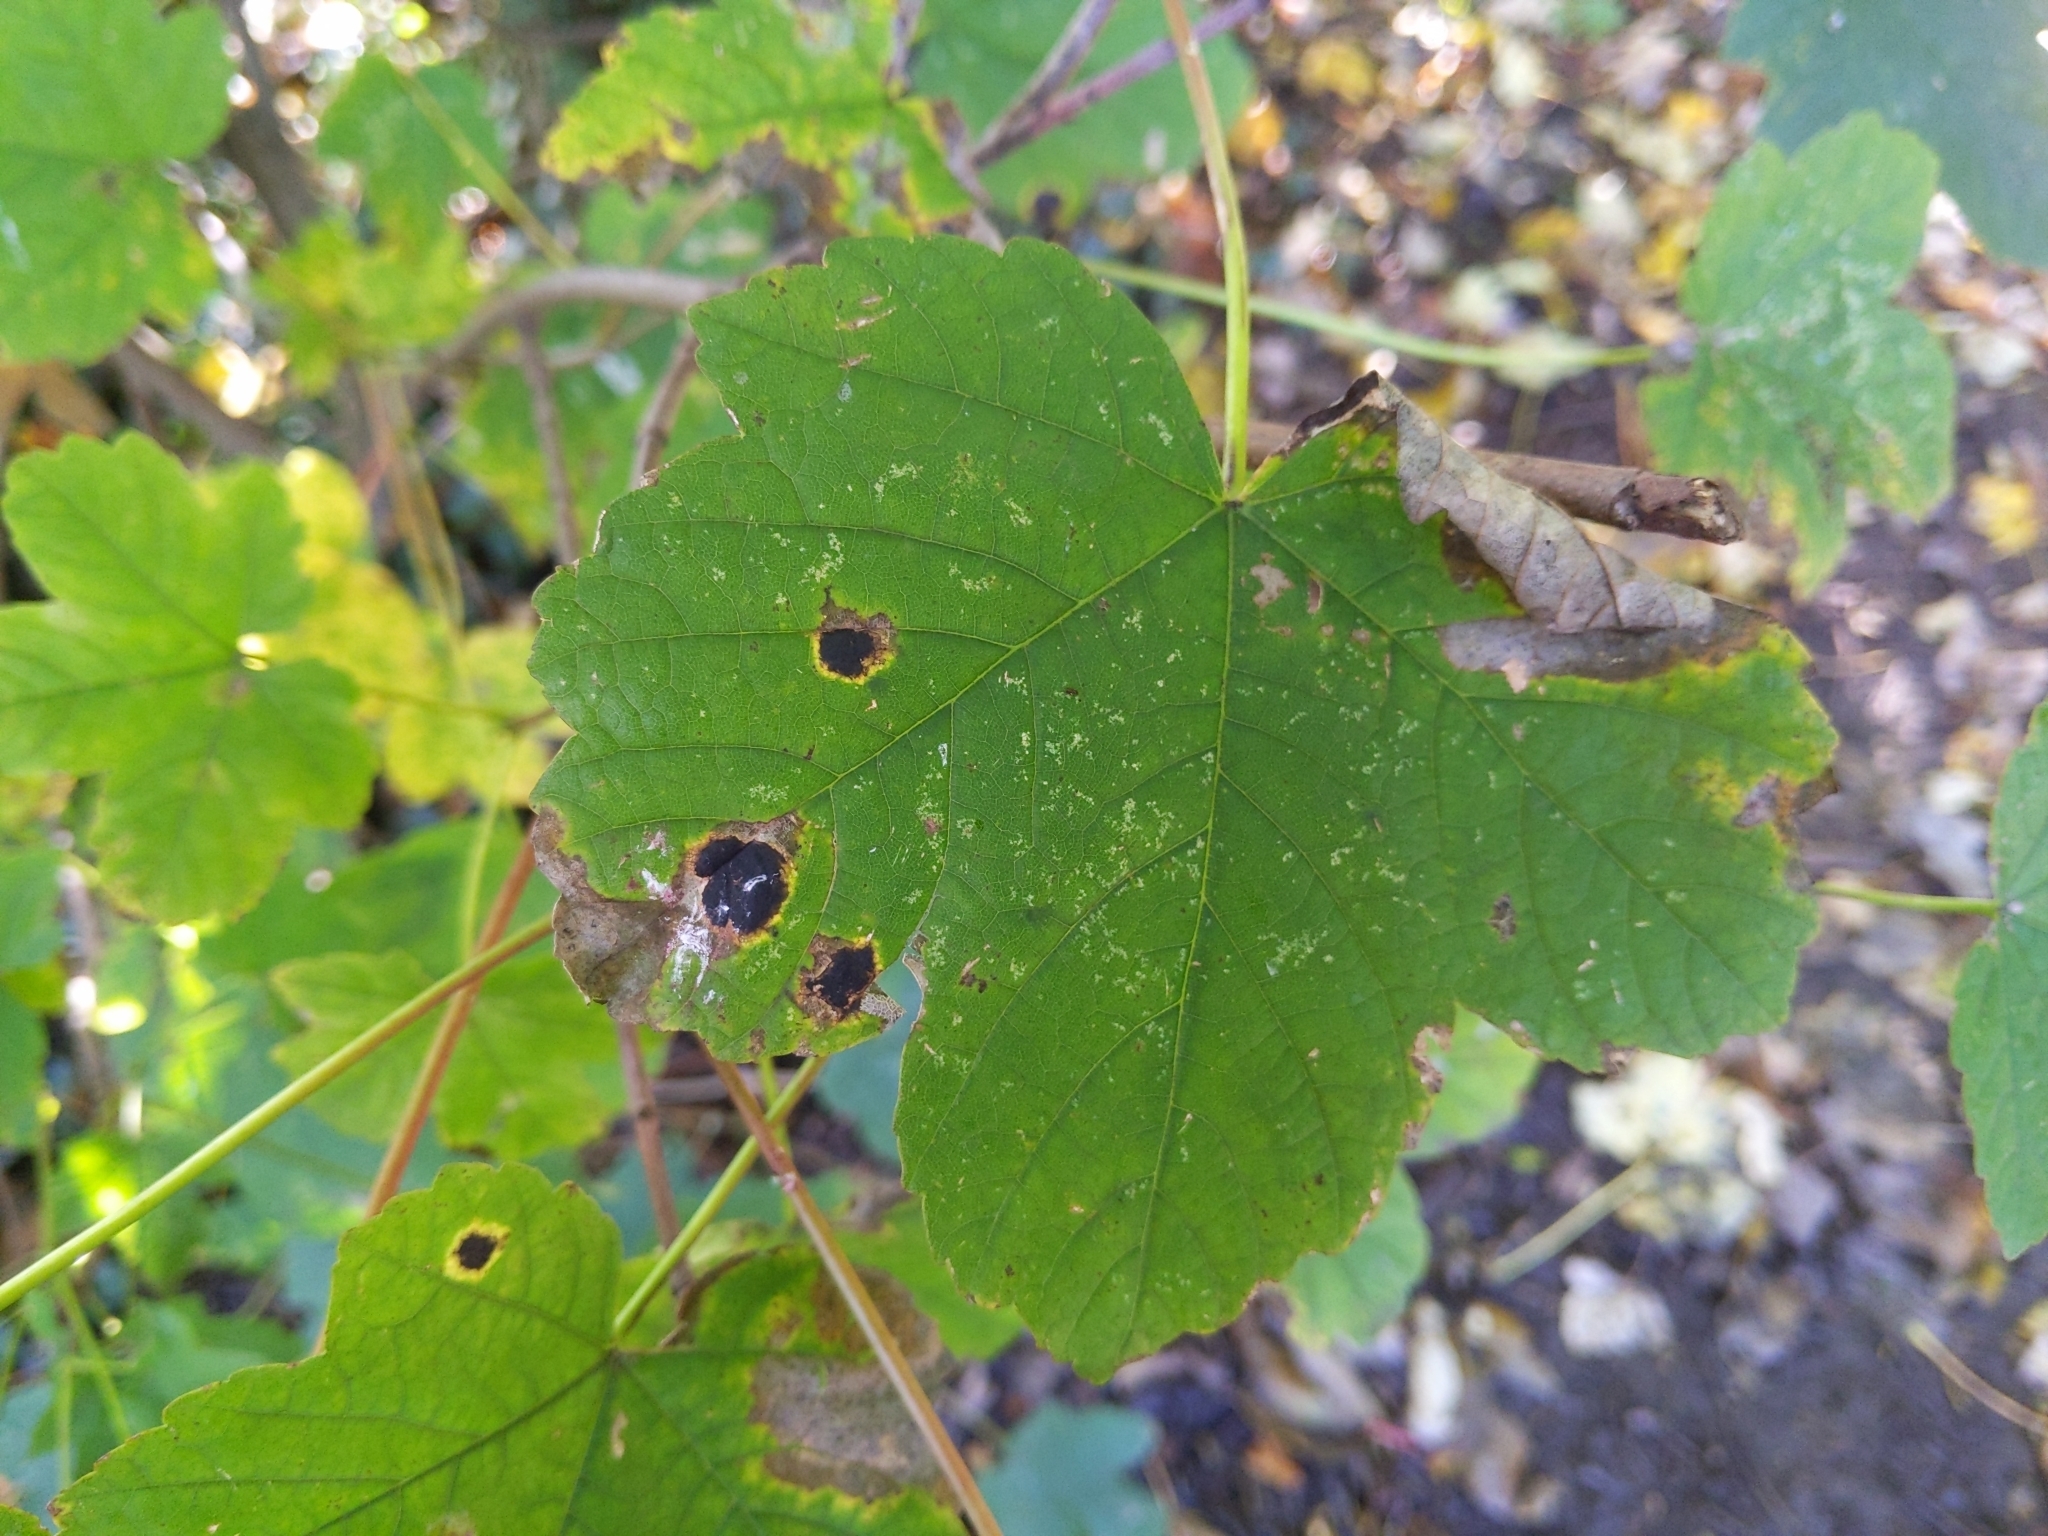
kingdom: Fungi
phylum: Ascomycota
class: Leotiomycetes
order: Rhytismatales
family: Rhytismataceae
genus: Rhytisma
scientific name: Rhytisma acerinum
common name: European tar spot
